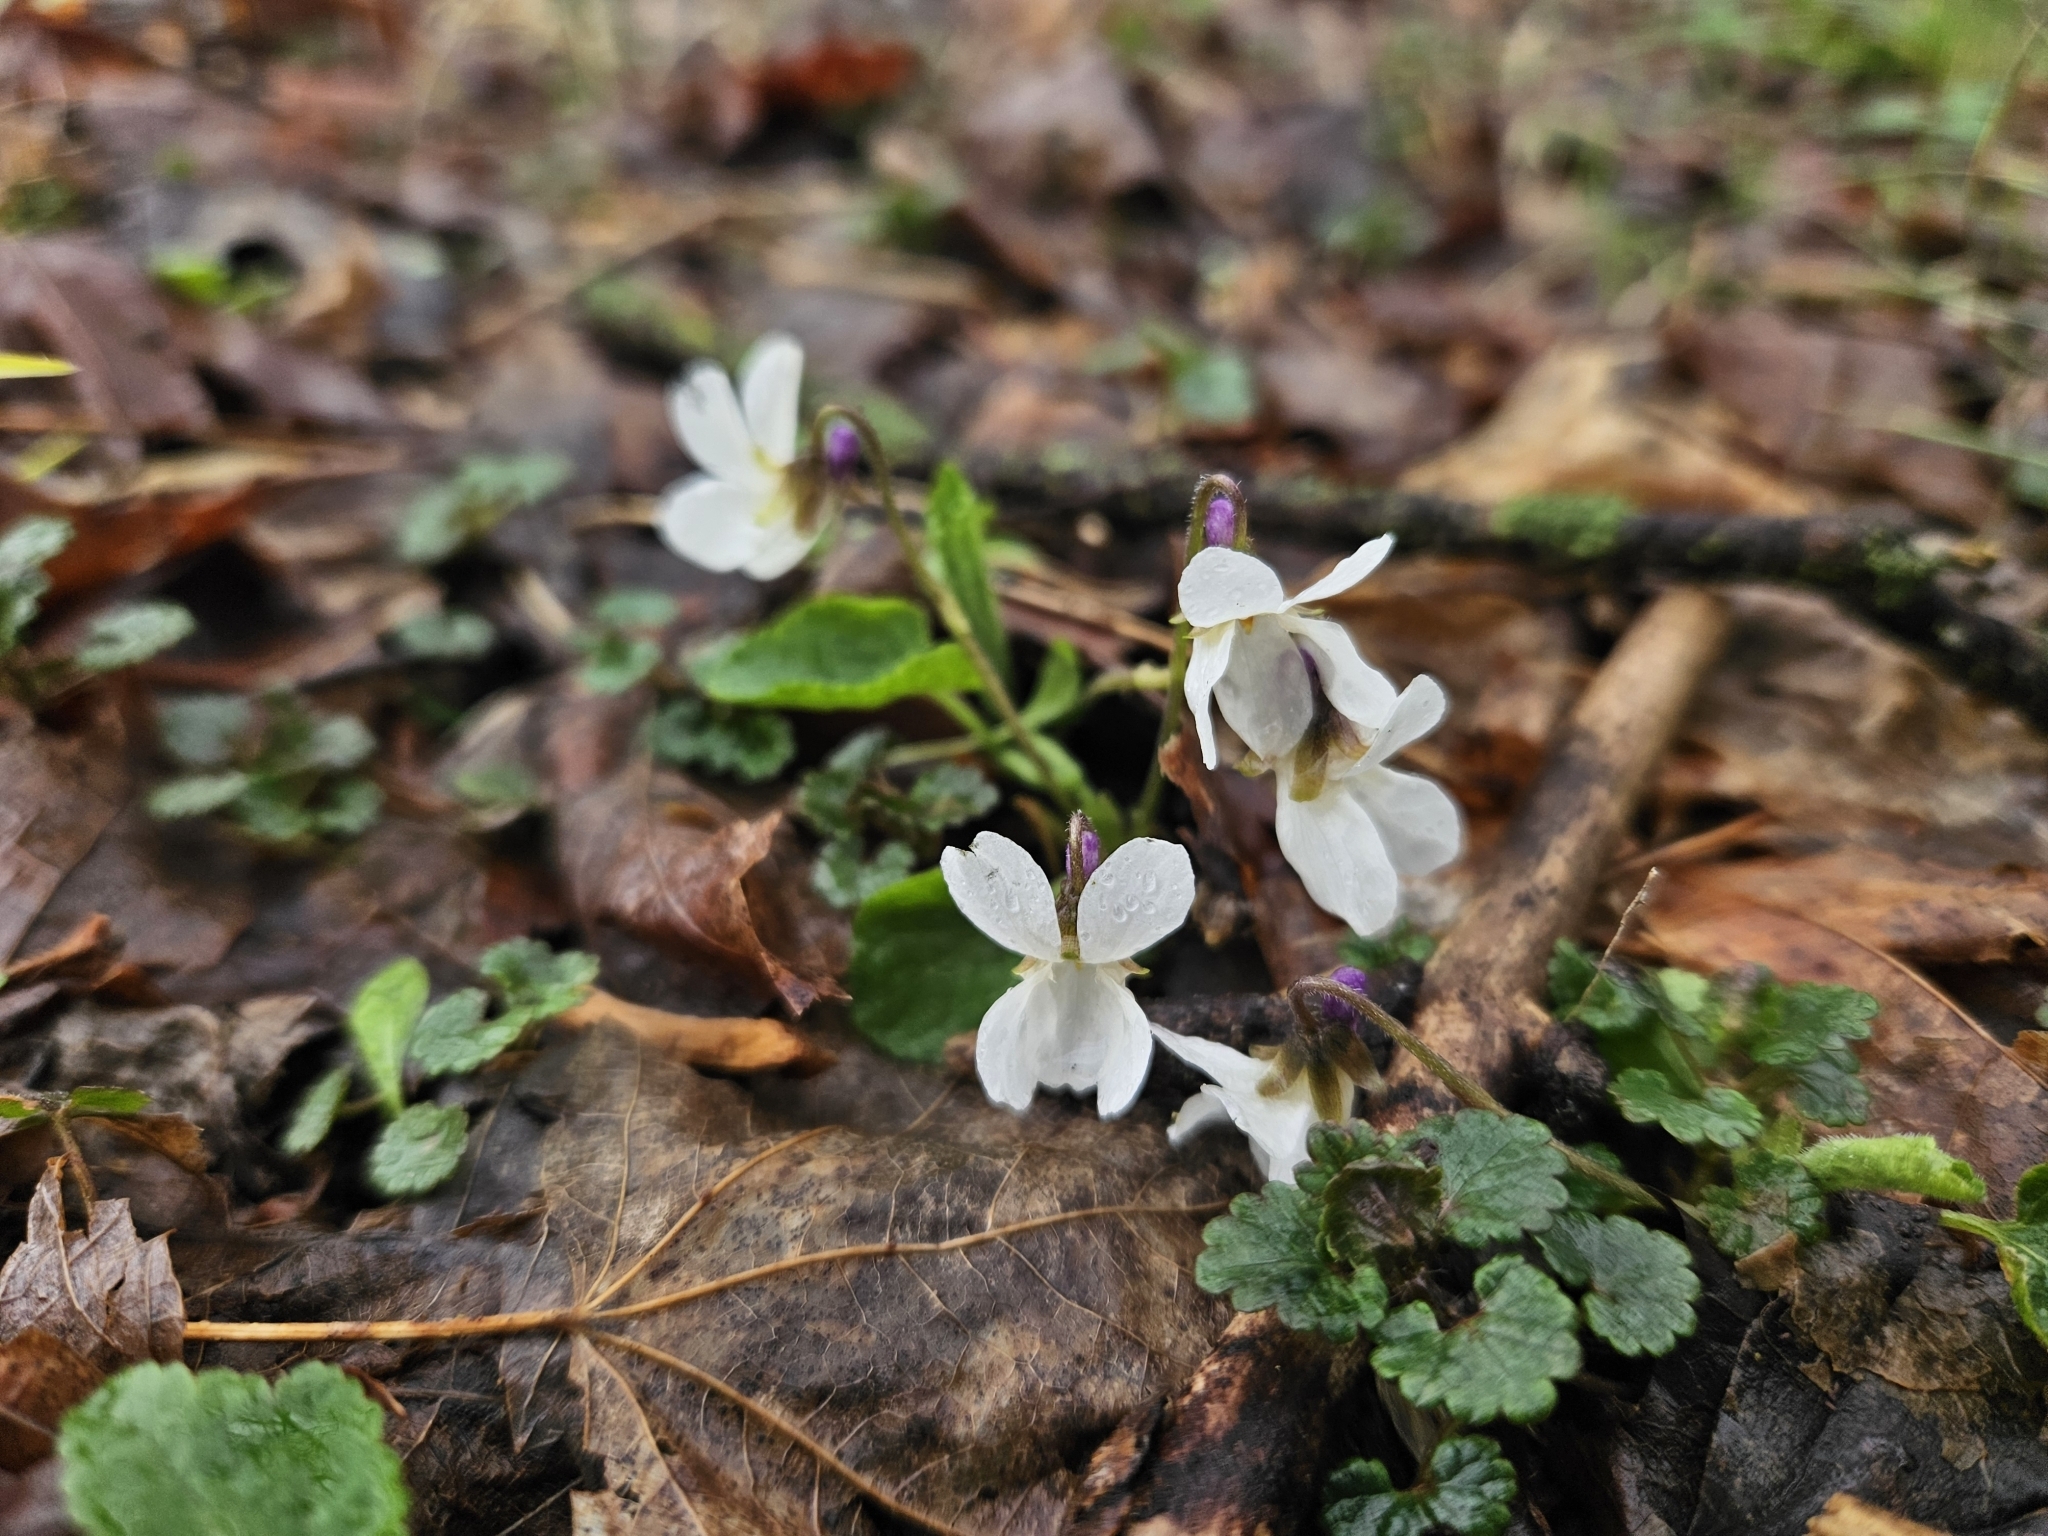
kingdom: Plantae
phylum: Tracheophyta
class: Magnoliopsida
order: Malpighiales
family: Violaceae
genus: Viola
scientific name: Viola odorata
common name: Sweet violet
